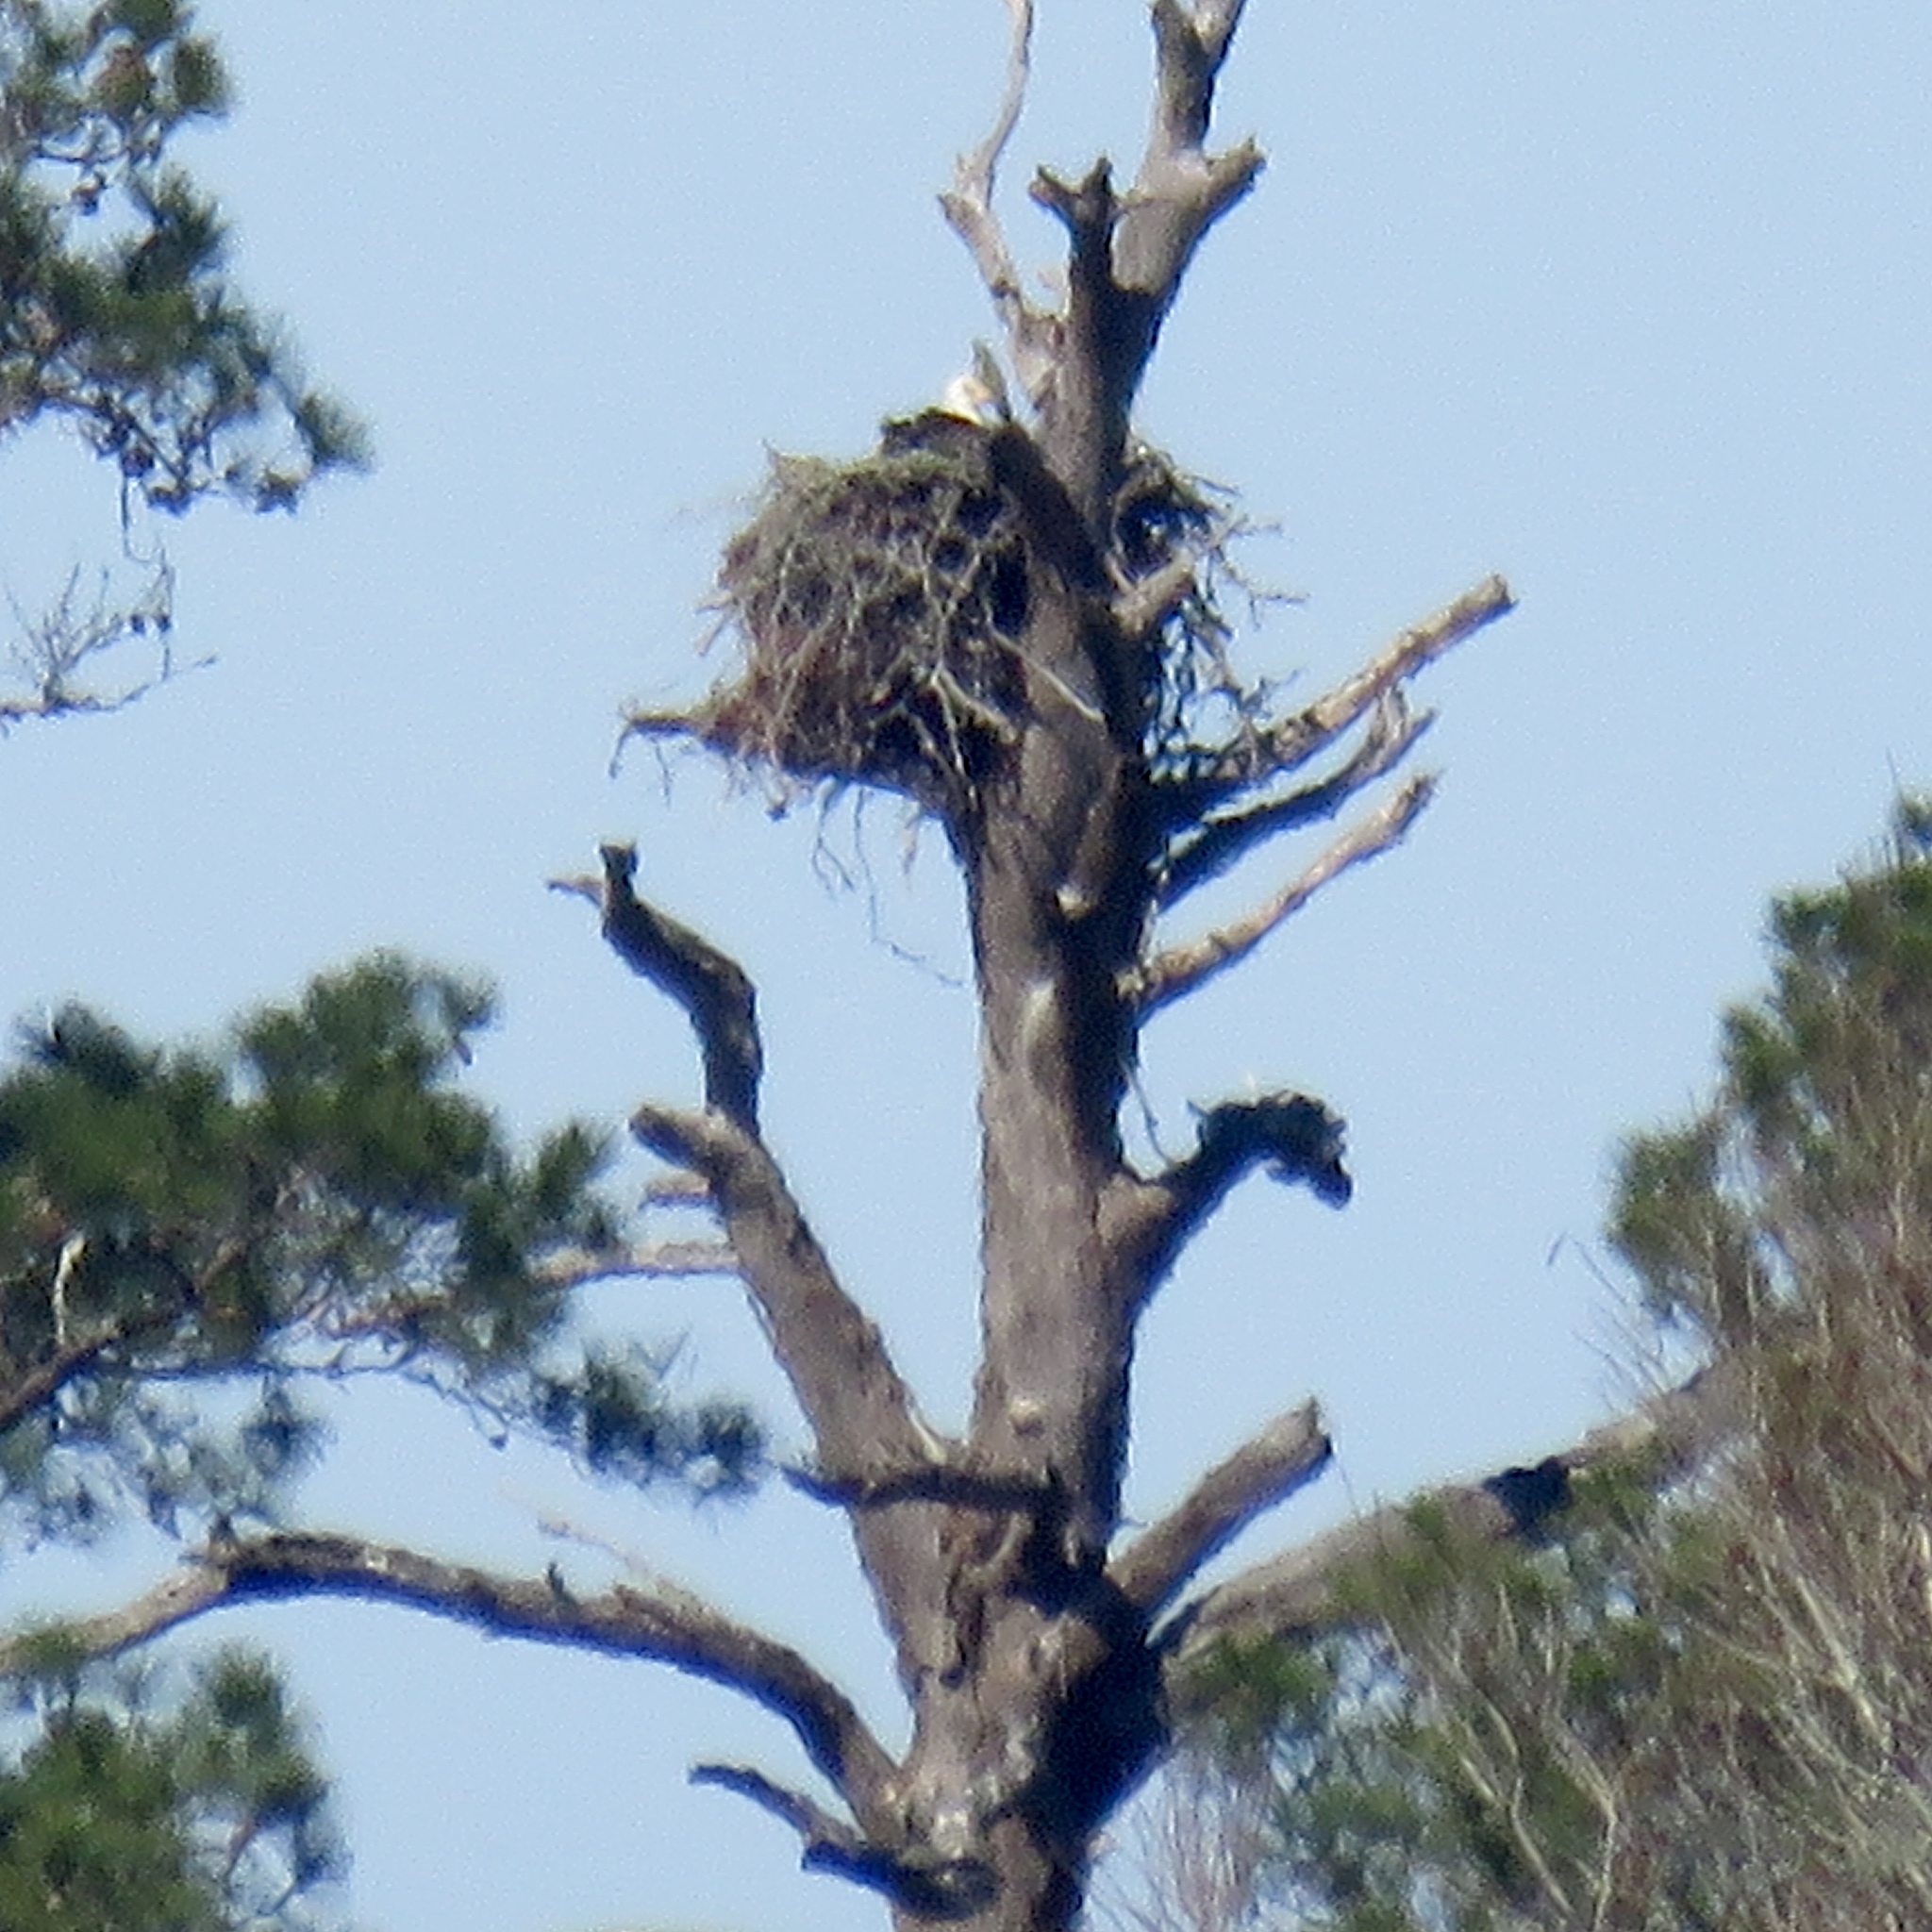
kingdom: Animalia
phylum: Chordata
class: Aves
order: Accipitriformes
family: Accipitridae
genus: Haliaeetus
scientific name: Haliaeetus leucocephalus
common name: Bald eagle
